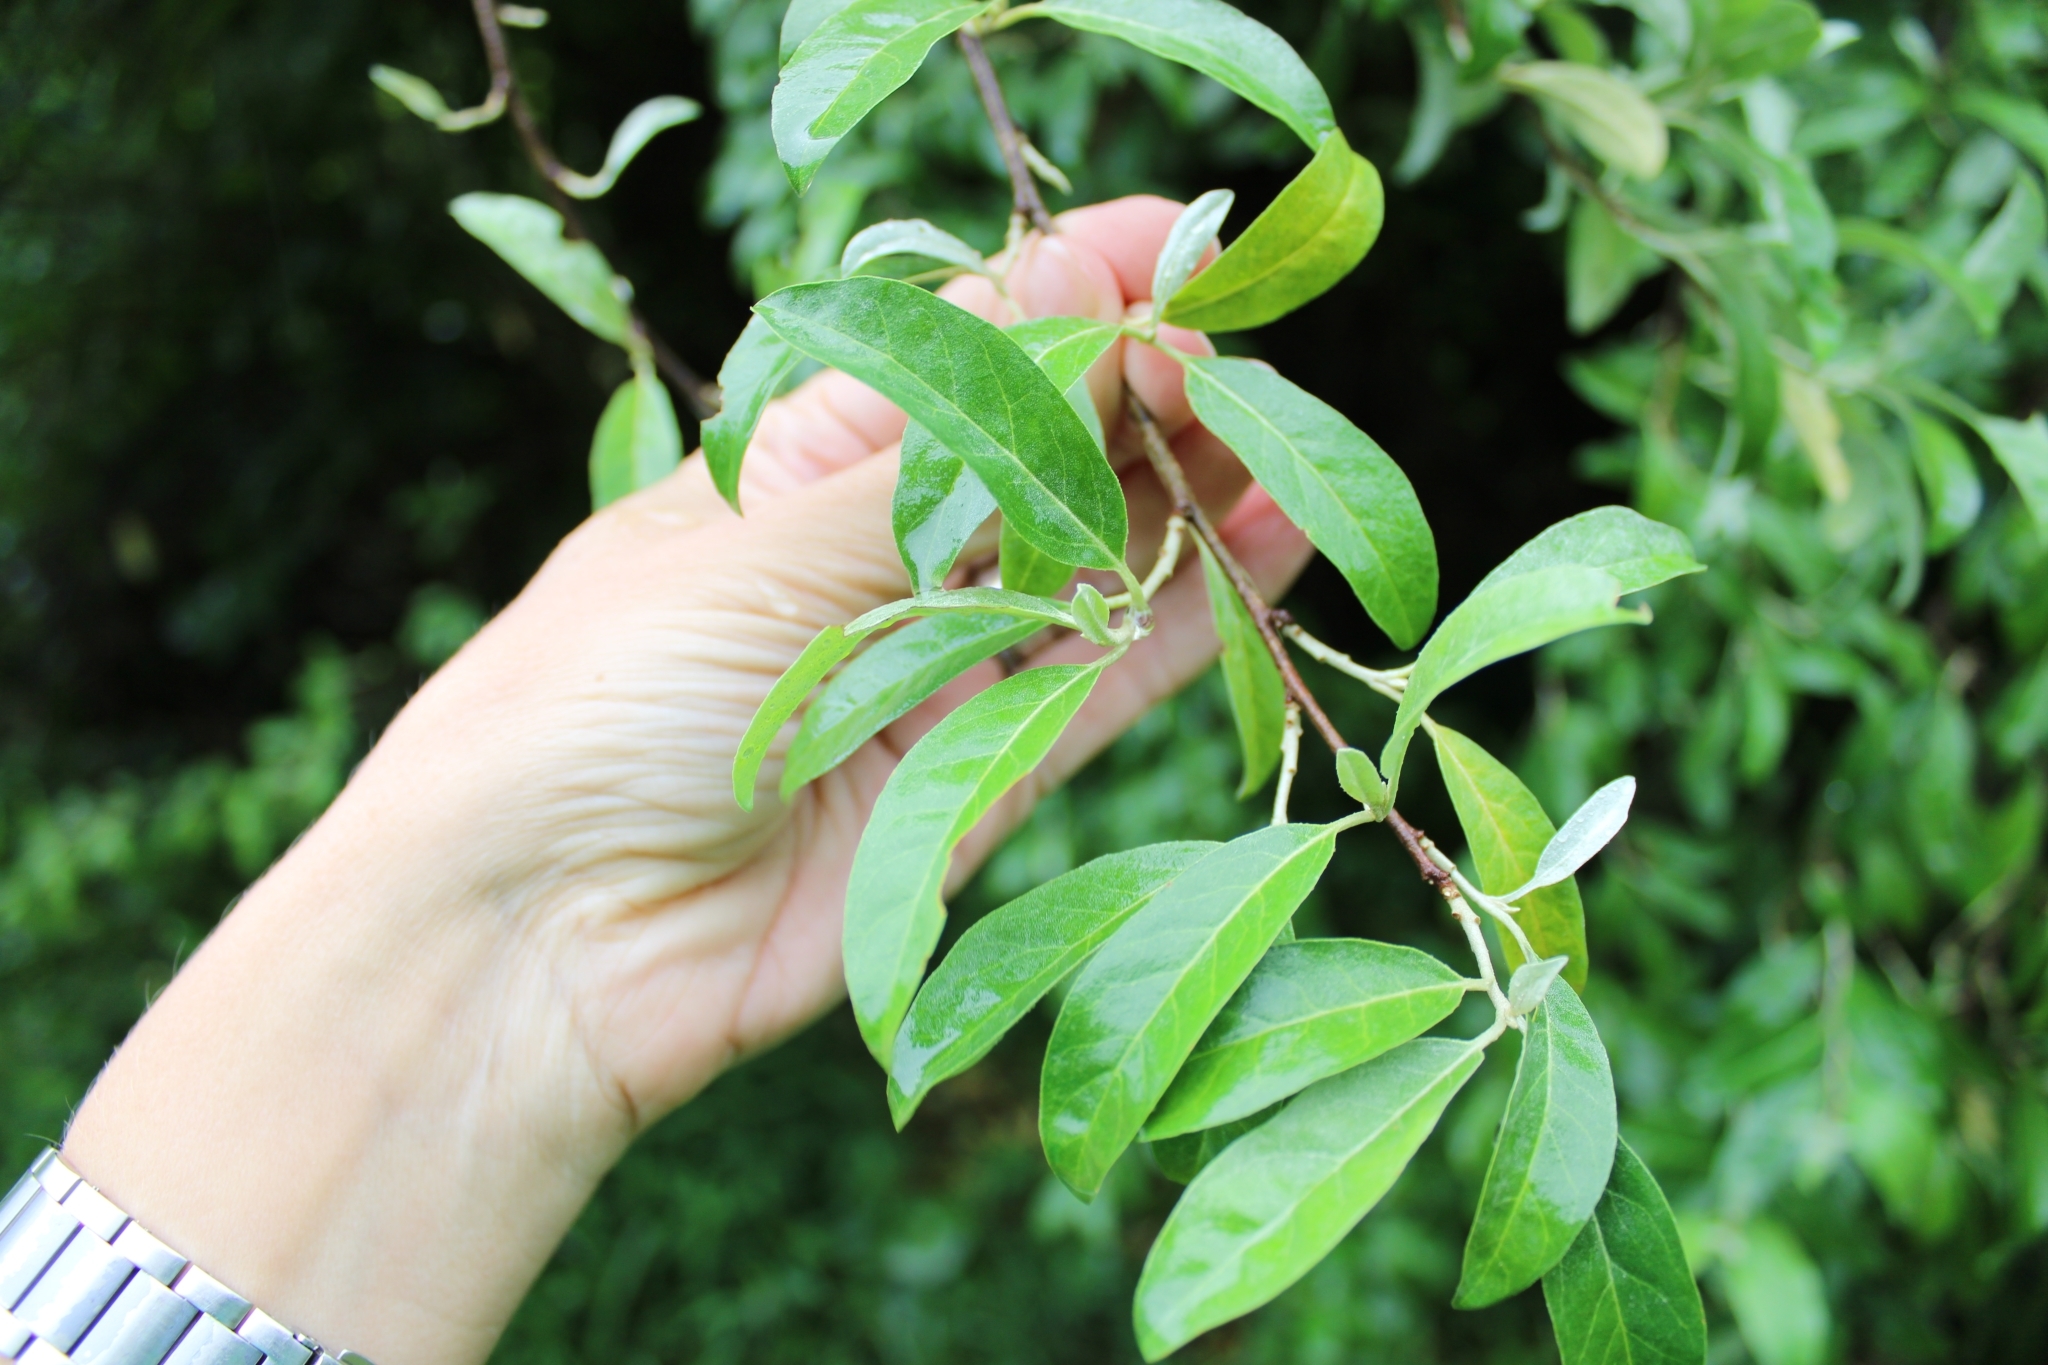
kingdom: Plantae
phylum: Tracheophyta
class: Magnoliopsida
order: Rosales
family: Elaeagnaceae
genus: Elaeagnus
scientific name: Elaeagnus umbellata
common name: Autumn olive
